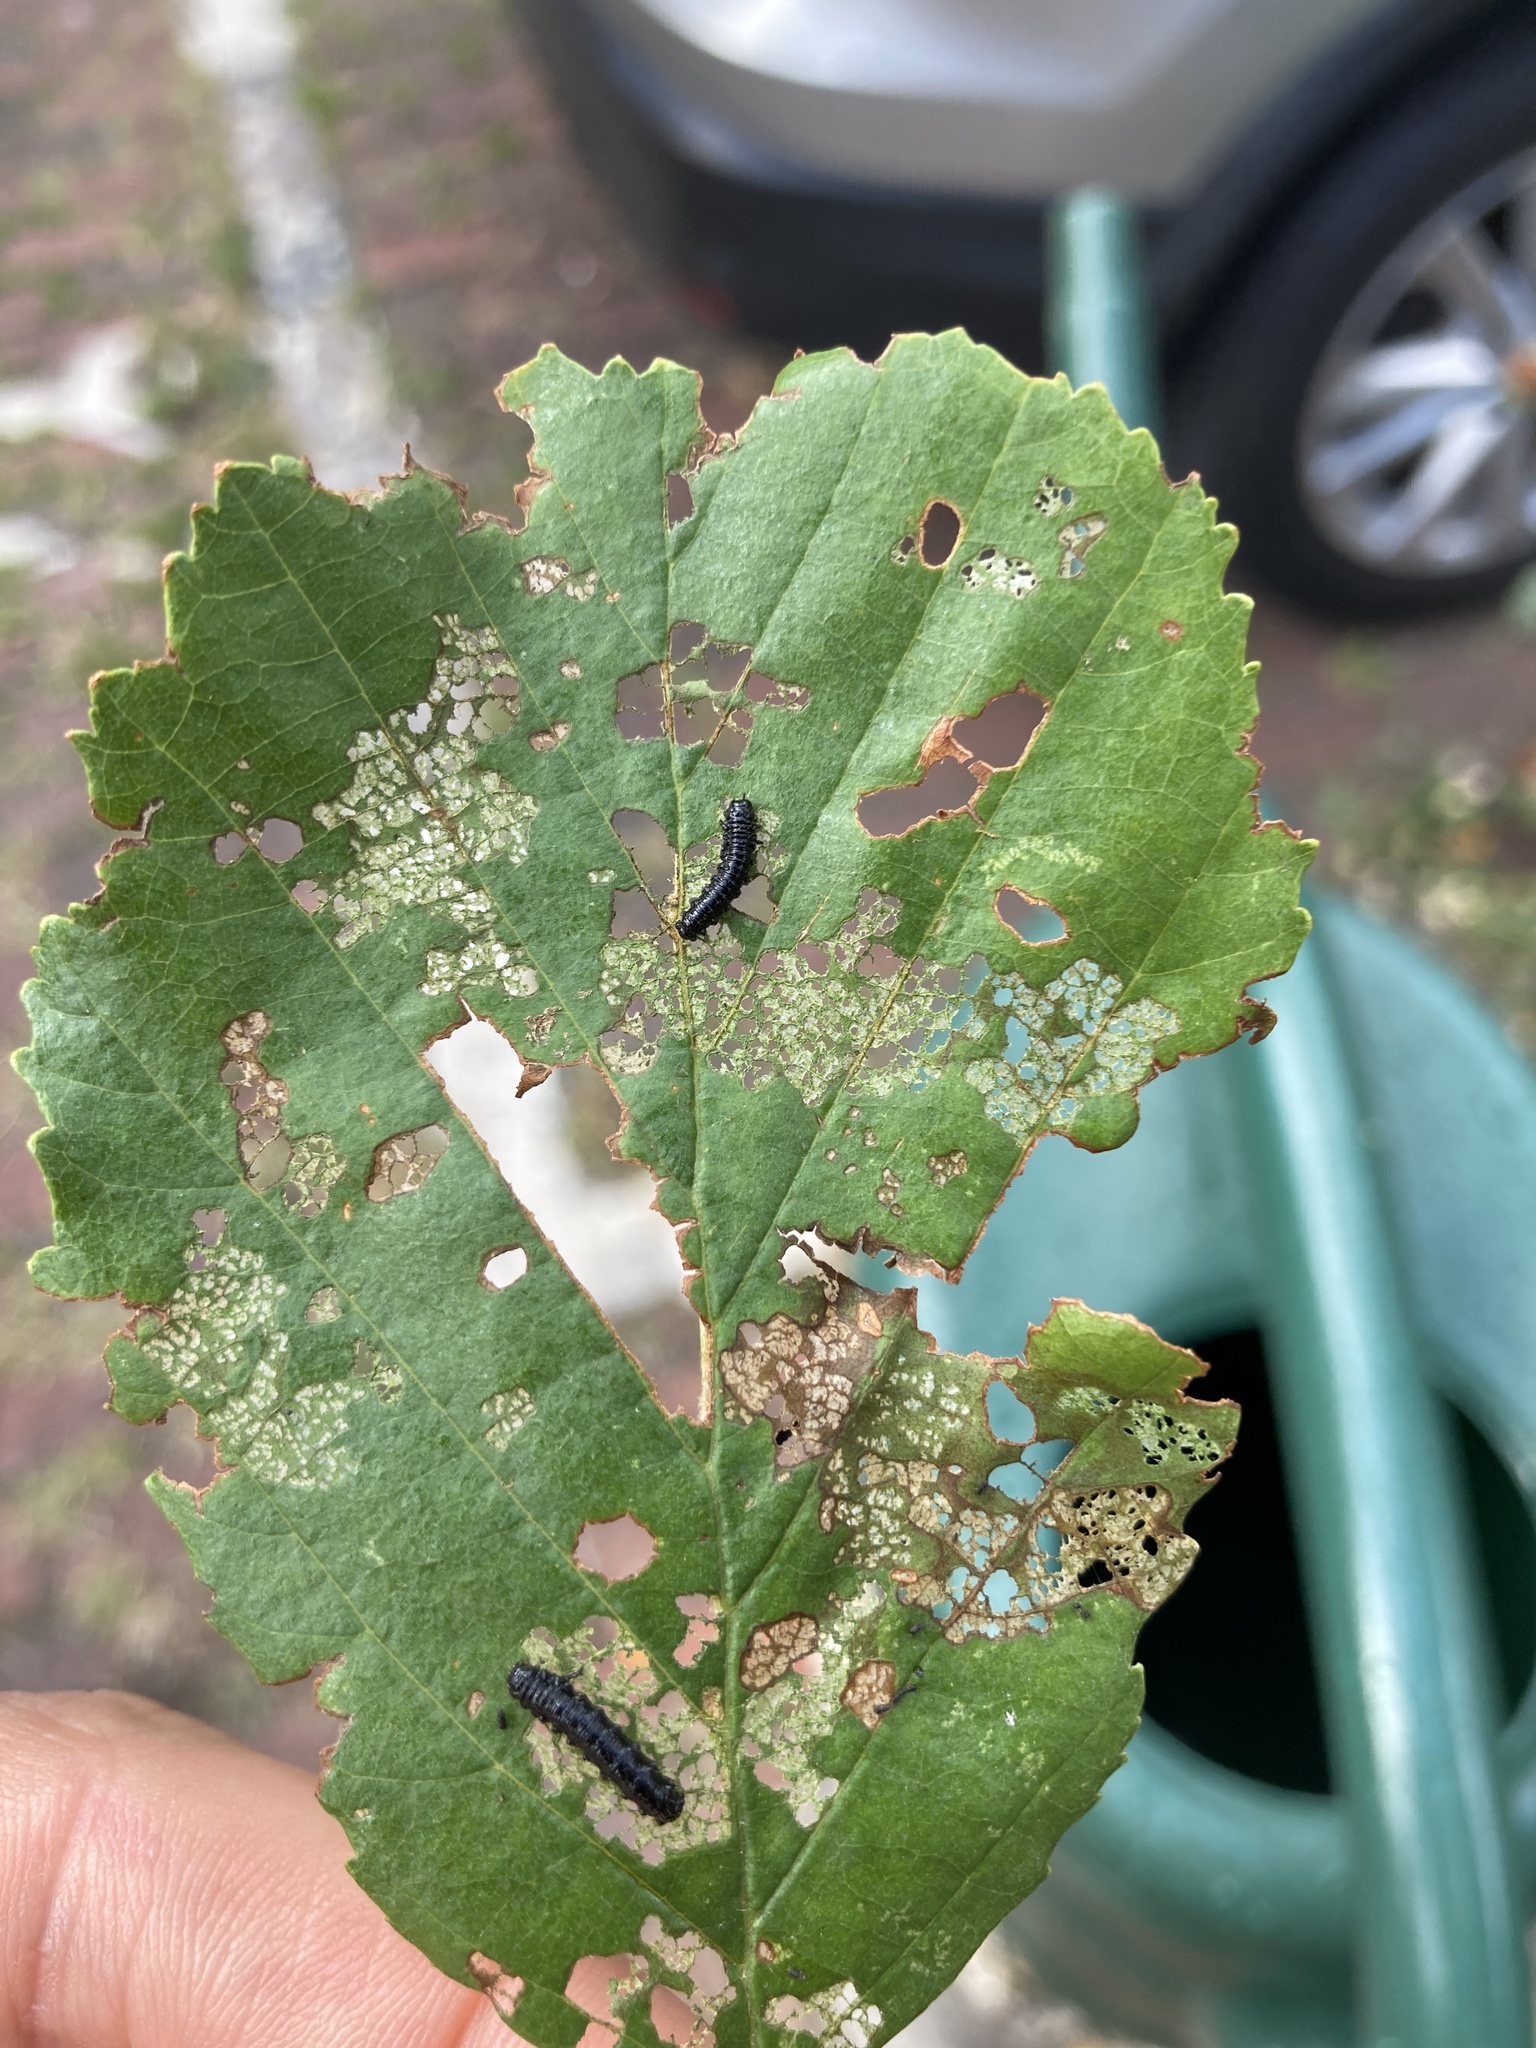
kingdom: Animalia
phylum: Arthropoda
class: Insecta
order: Coleoptera
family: Chrysomelidae
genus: Agelastica
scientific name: Agelastica alni
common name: Alder leaf beetle
